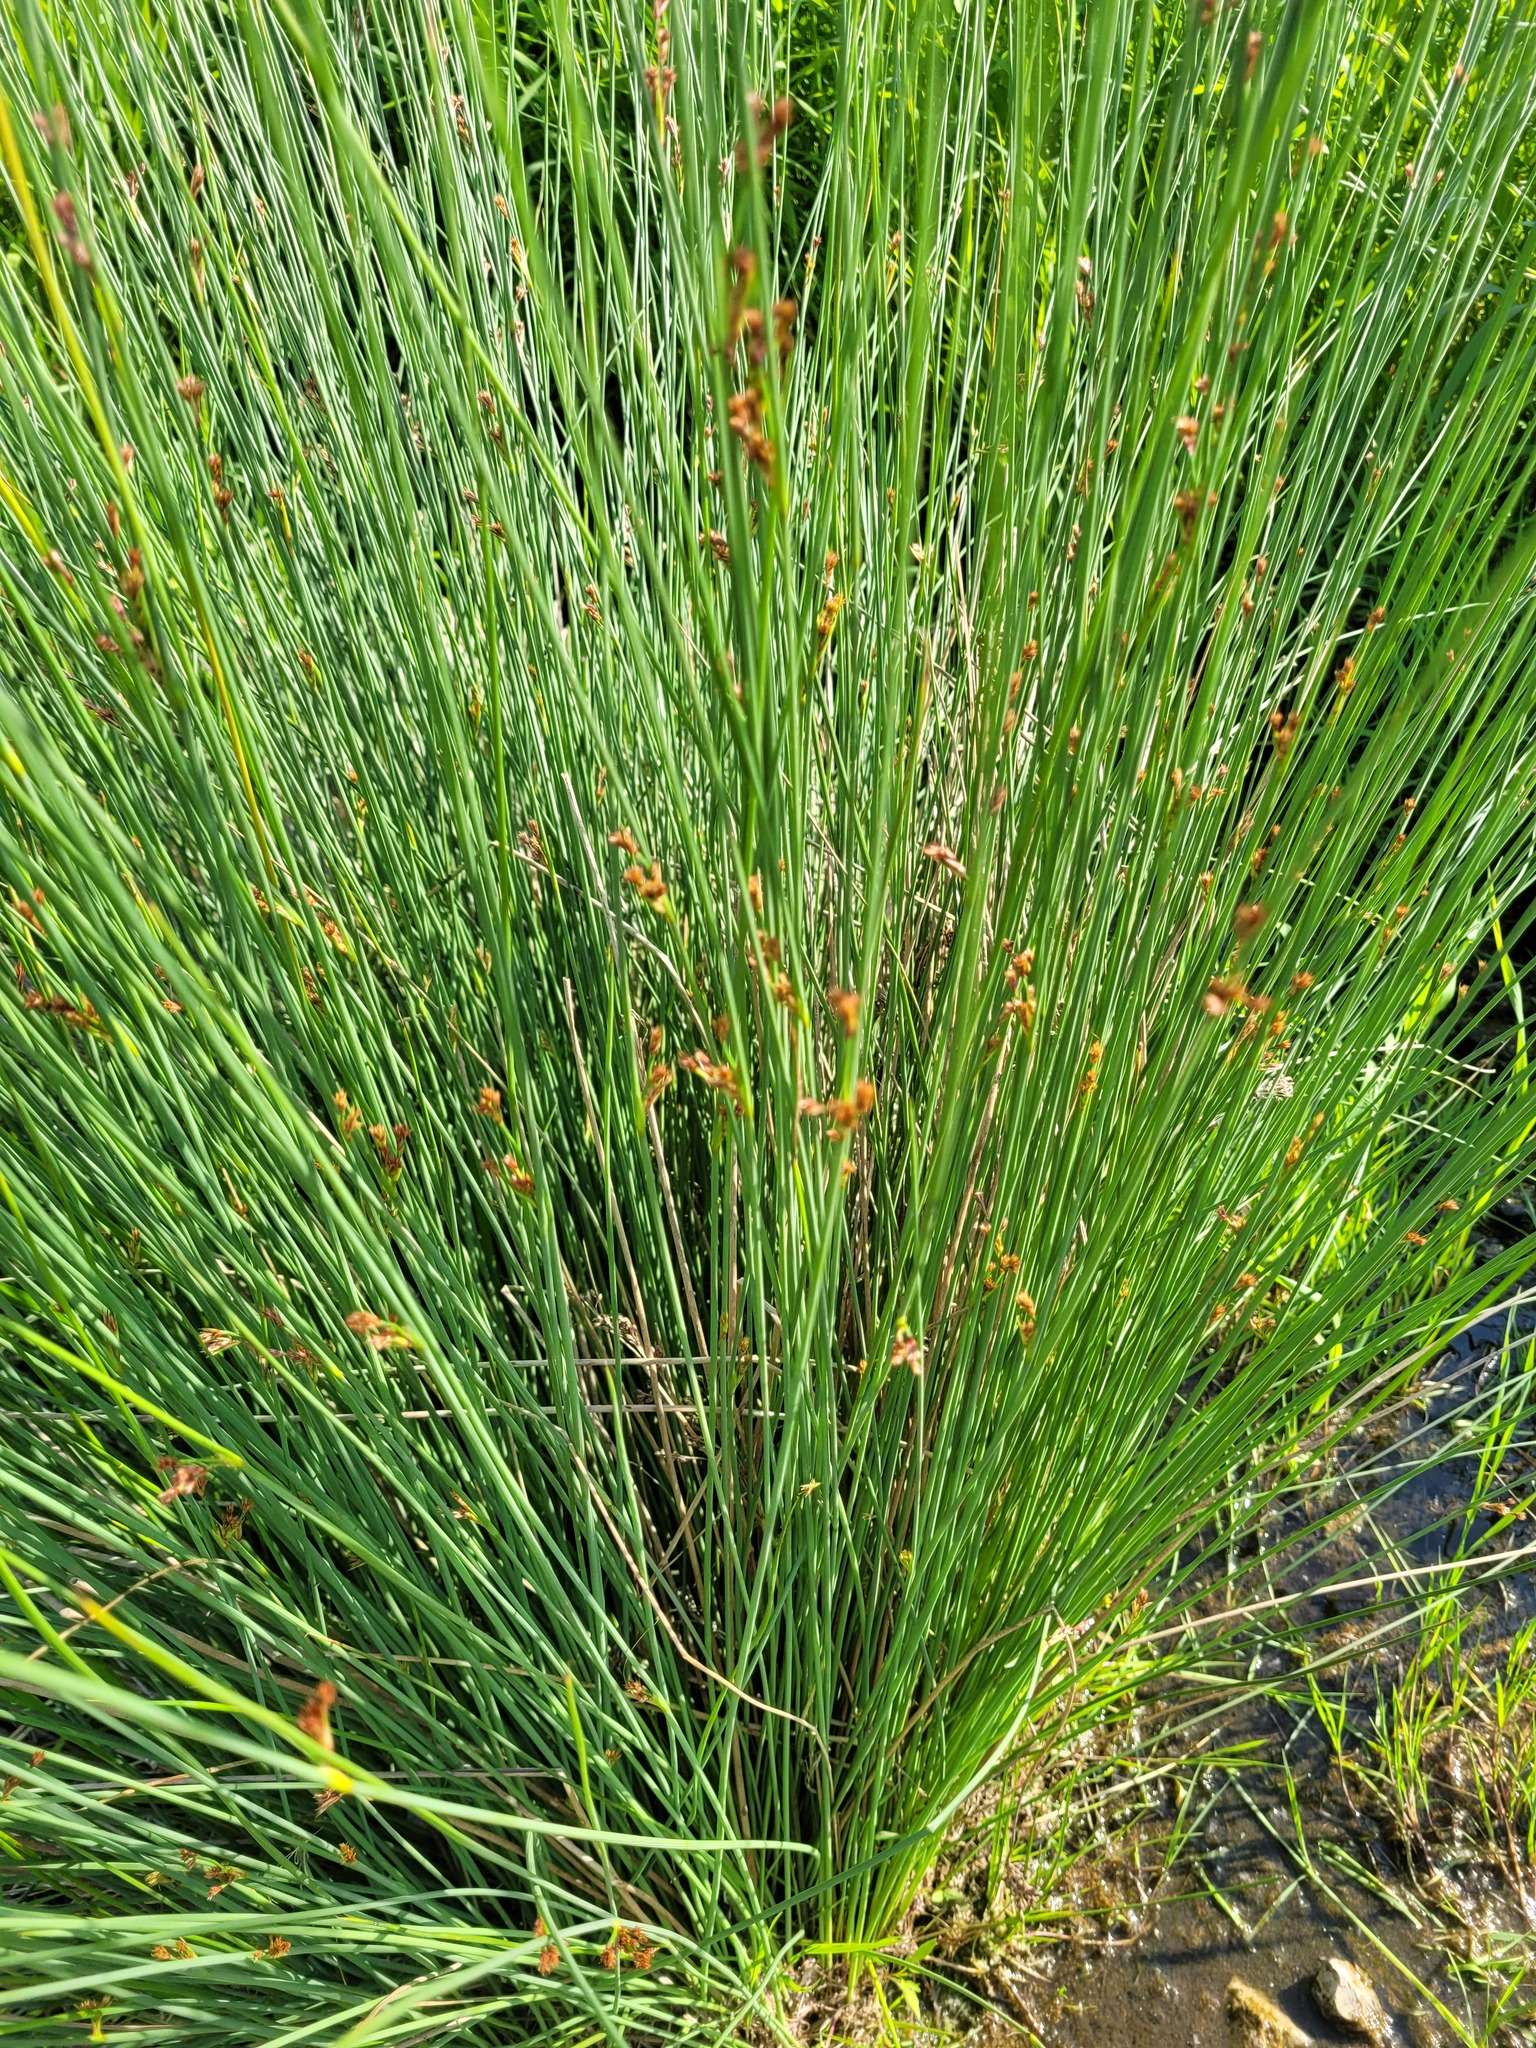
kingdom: Plantae
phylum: Tracheophyta
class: Liliopsida
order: Poales
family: Juncaceae
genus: Juncus
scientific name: Juncus inflexus
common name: Hard rush
